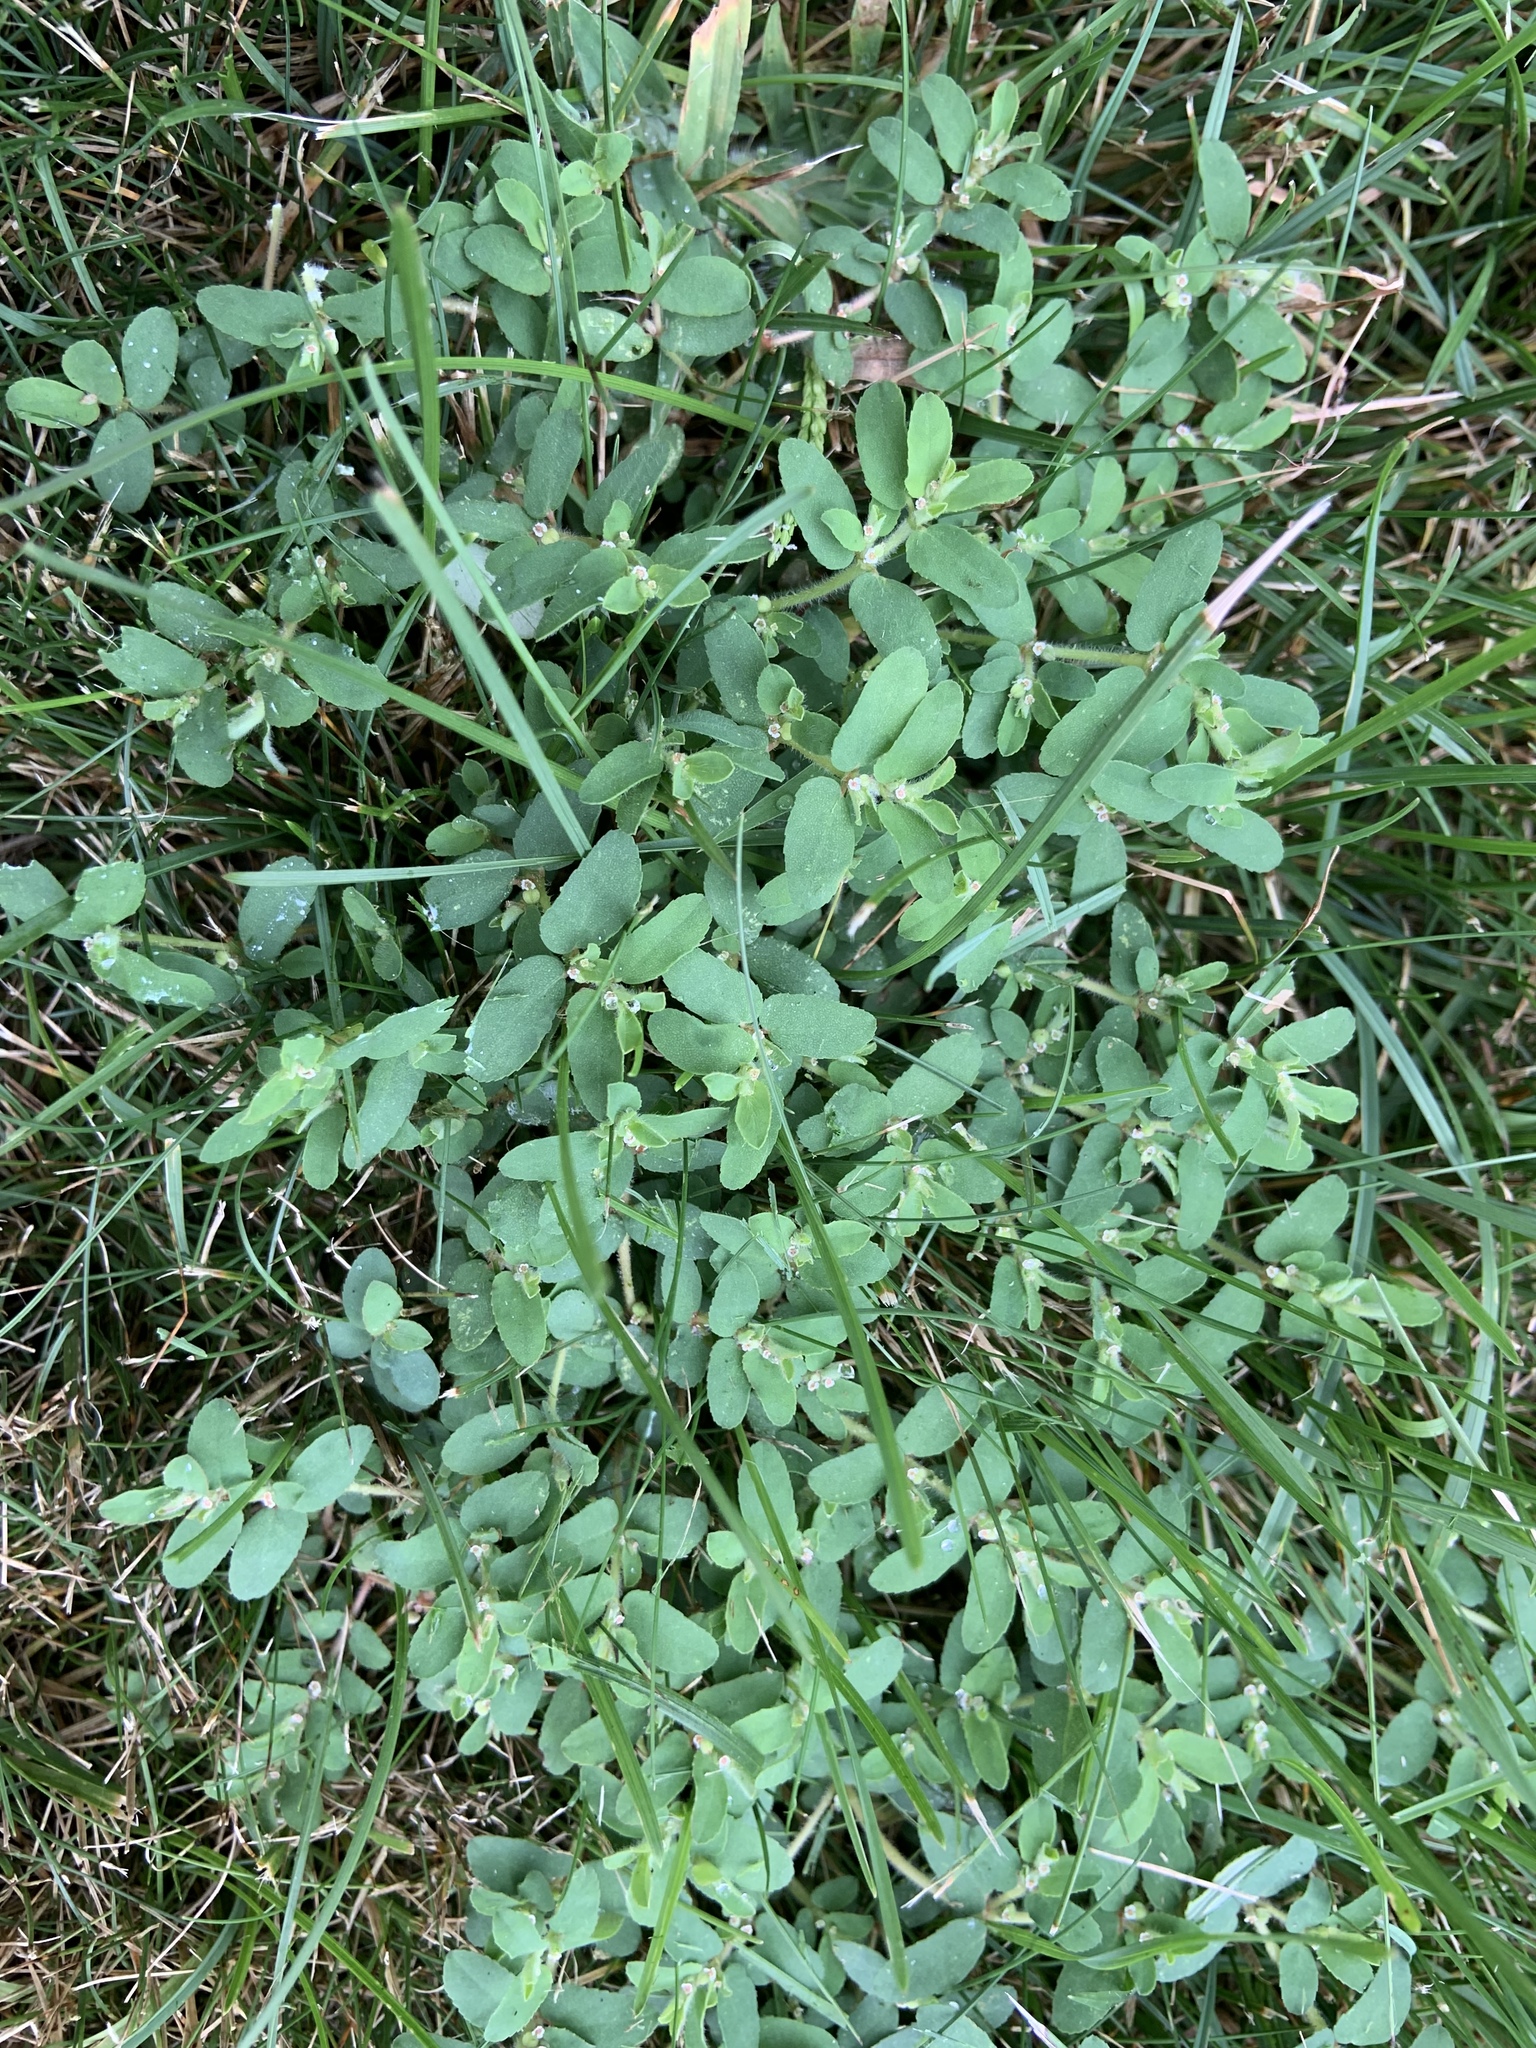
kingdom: Plantae
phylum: Tracheophyta
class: Magnoliopsida
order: Malpighiales
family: Euphorbiaceae
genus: Euphorbia
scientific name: Euphorbia maculata
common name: Spotted spurge
